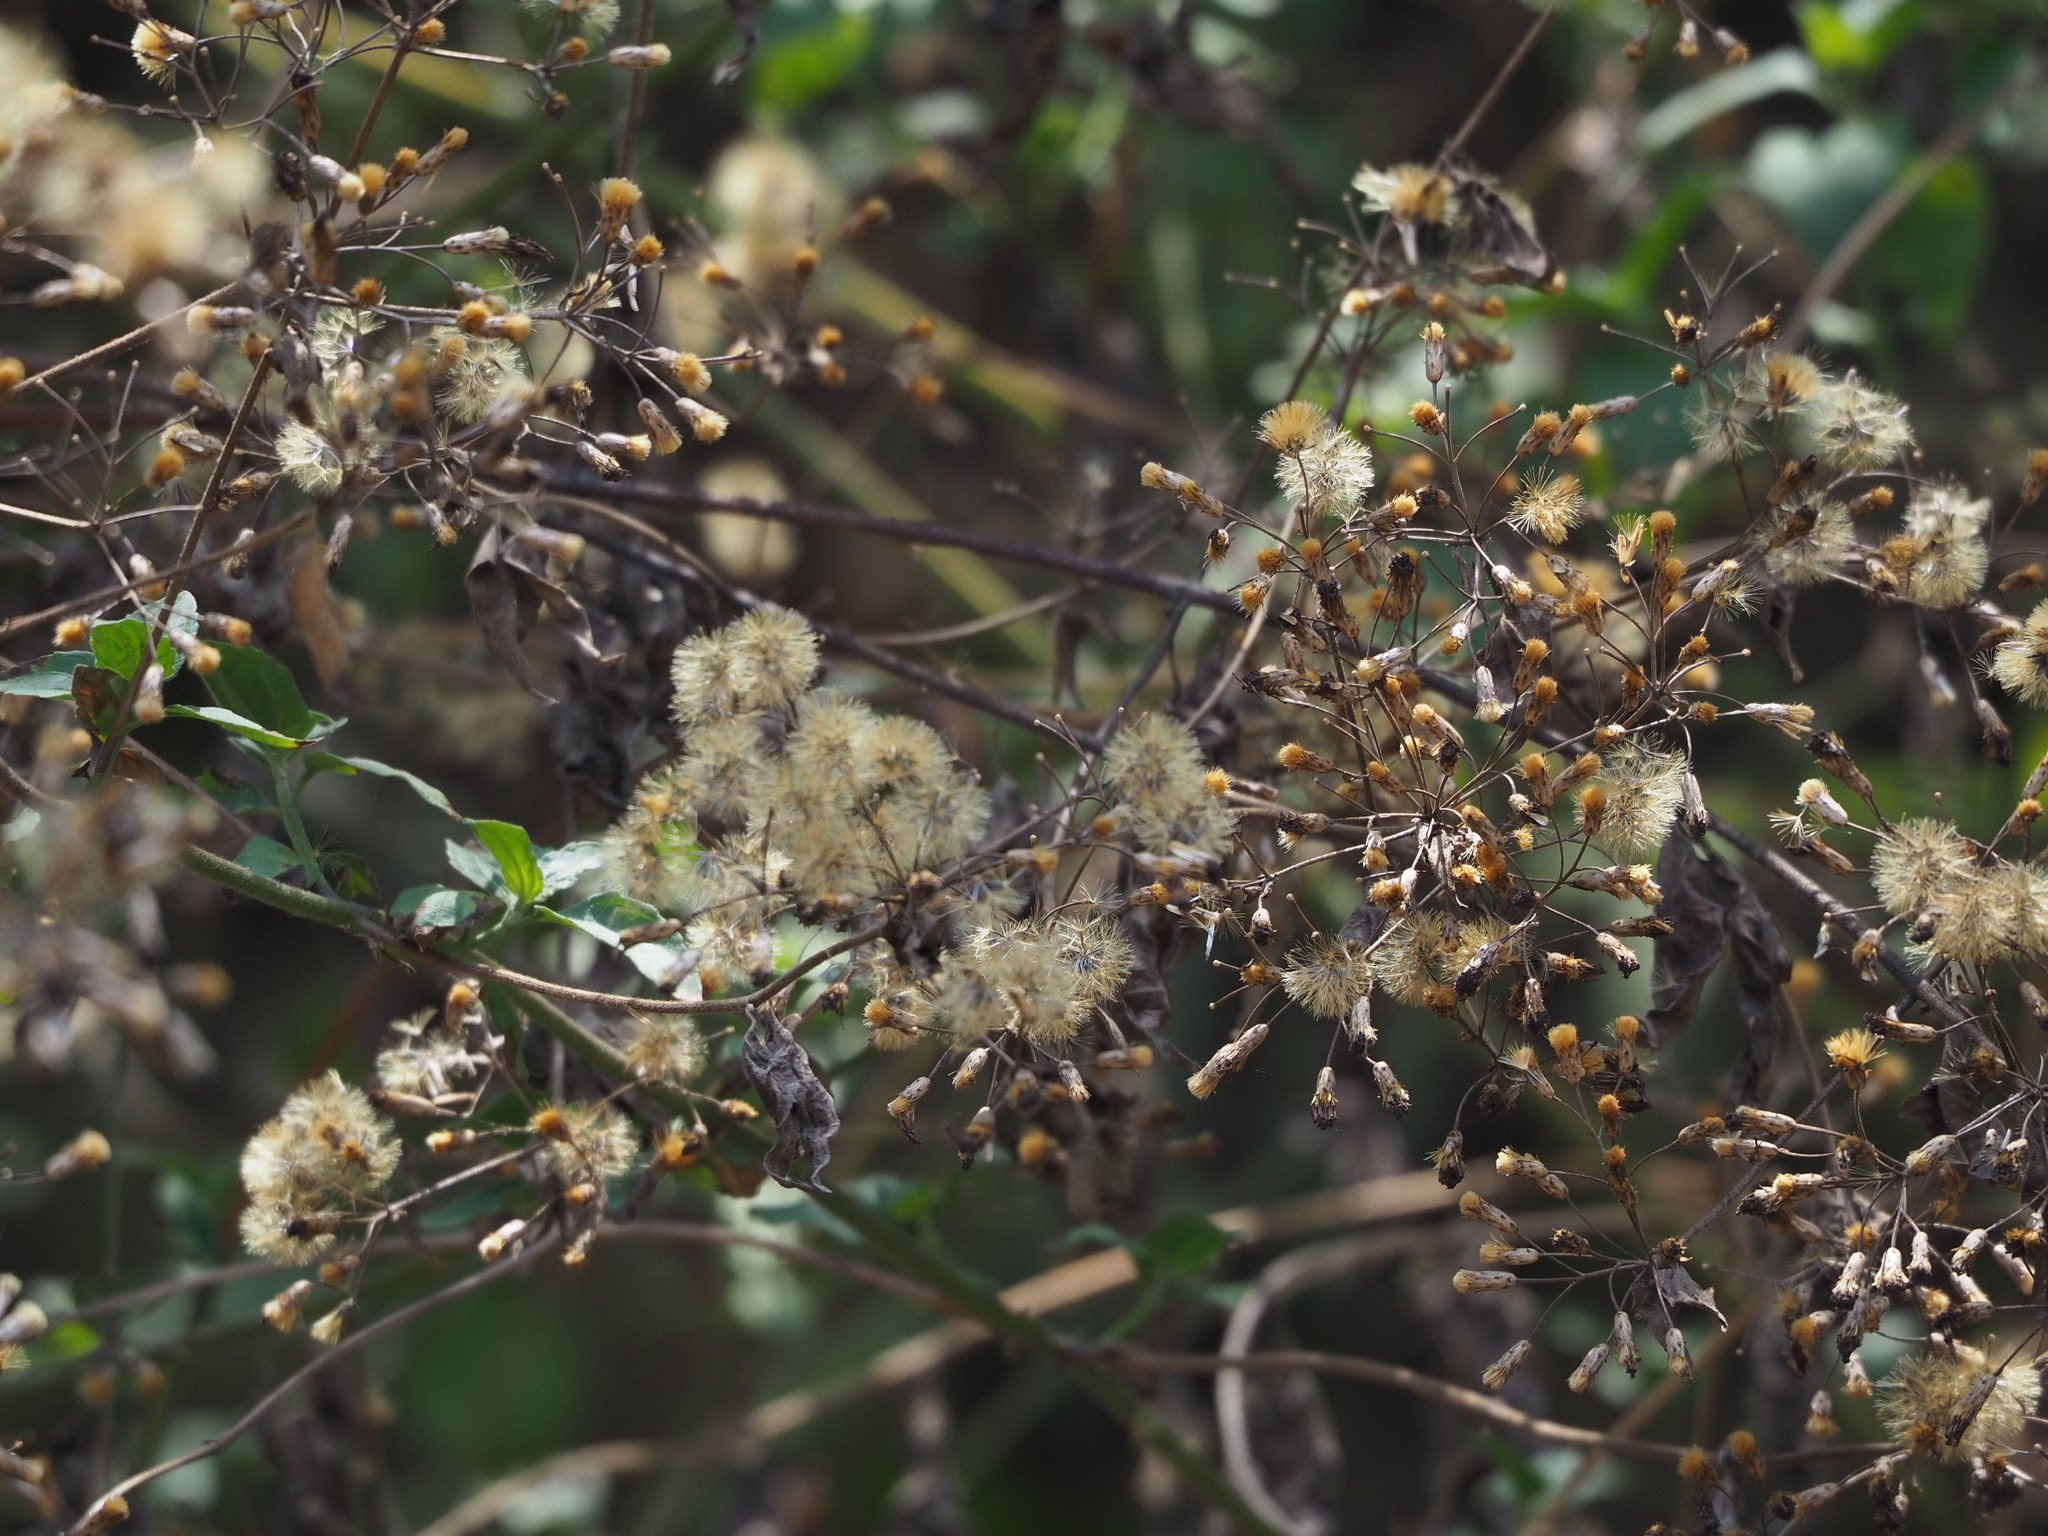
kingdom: Plantae
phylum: Tracheophyta
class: Magnoliopsida
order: Asterales
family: Asteraceae
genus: Chromolaena
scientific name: Chromolaena odorata
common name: Siamweed
